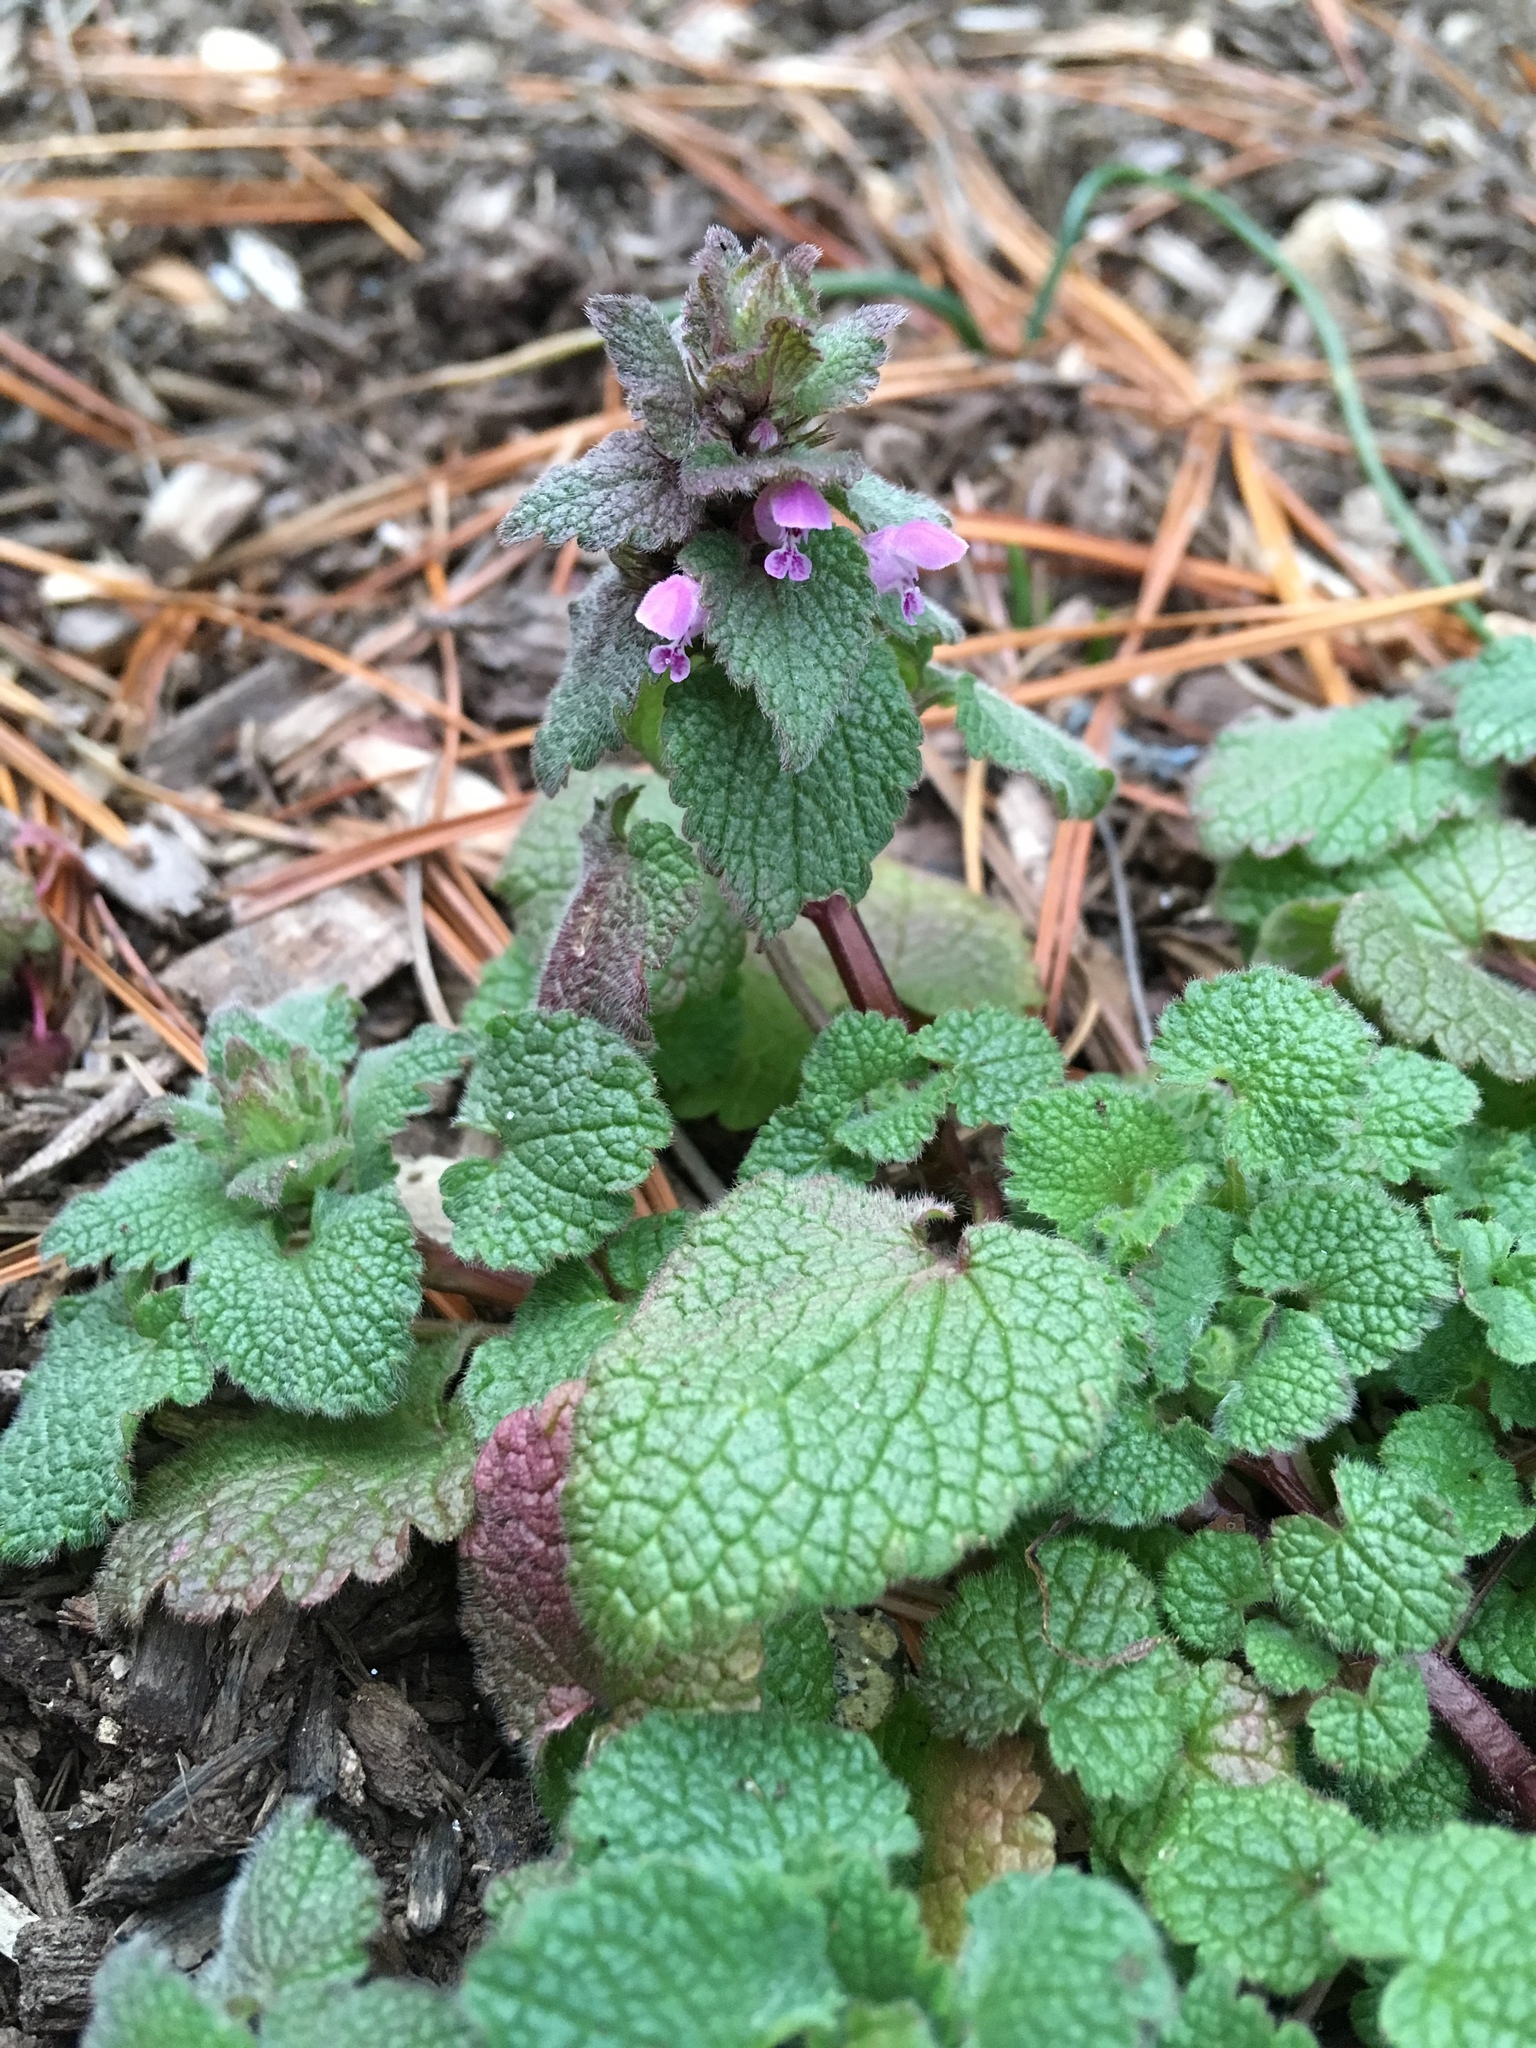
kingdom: Plantae
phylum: Tracheophyta
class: Magnoliopsida
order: Lamiales
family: Lamiaceae
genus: Lamium
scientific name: Lamium purpureum
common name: Red dead-nettle
